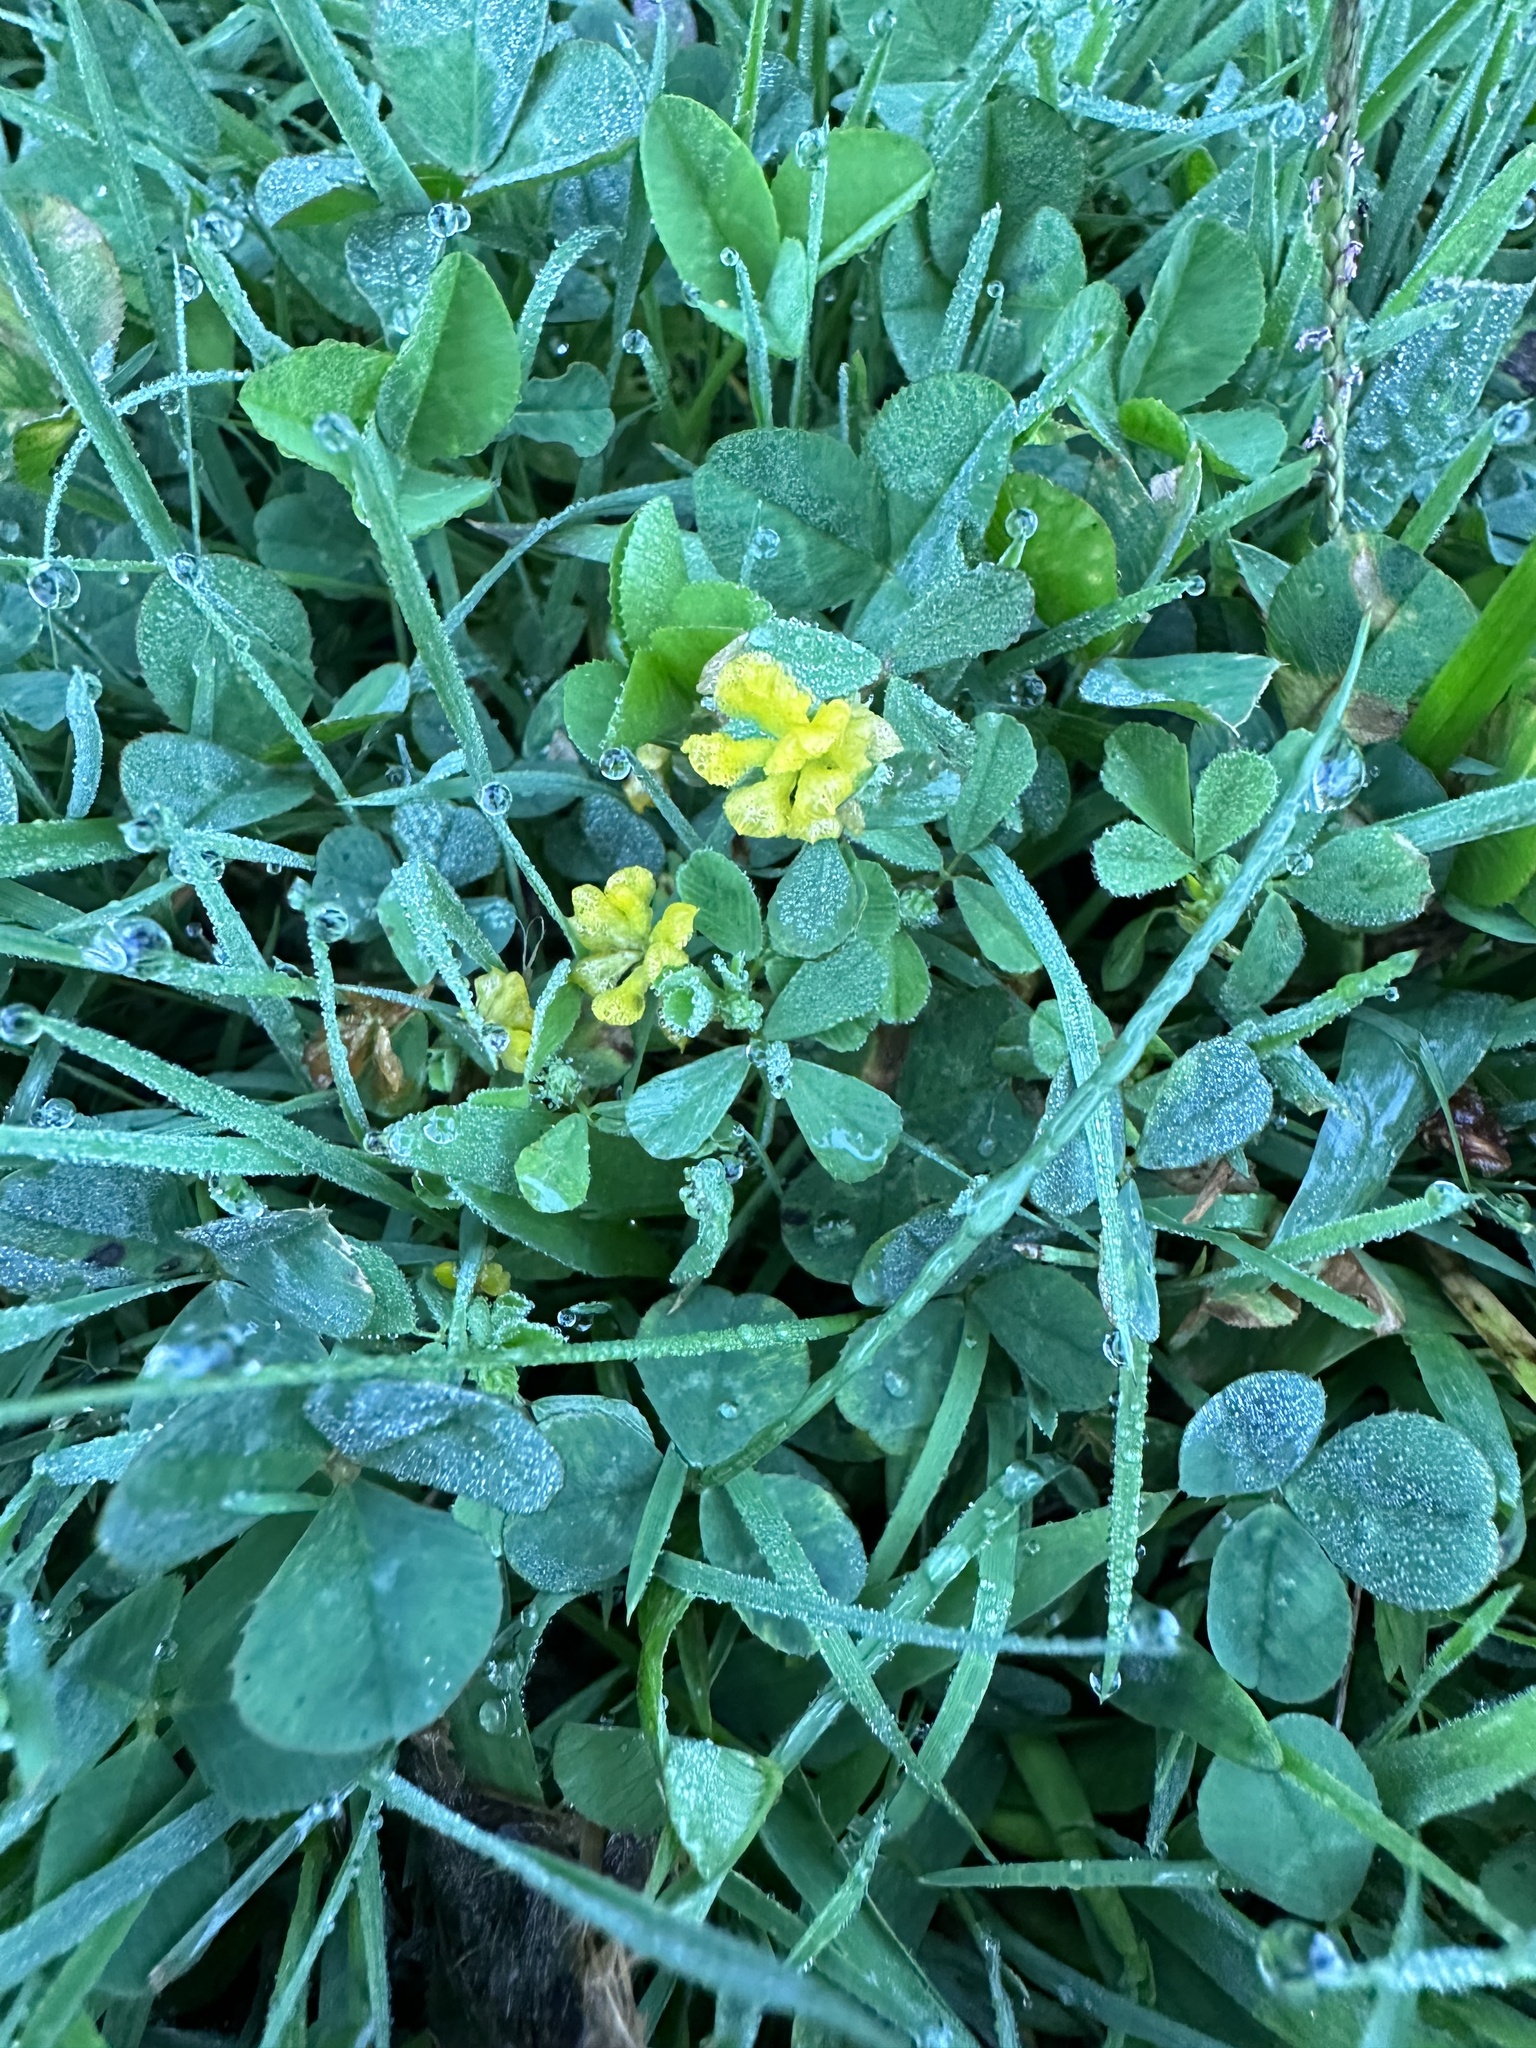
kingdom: Plantae
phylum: Tracheophyta
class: Magnoliopsida
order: Fabales
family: Fabaceae
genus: Trifolium
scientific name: Trifolium campestre
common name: Field clover
